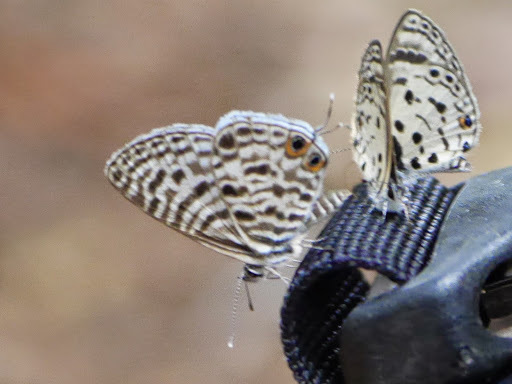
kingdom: Animalia
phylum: Arthropoda
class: Insecta
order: Lepidoptera
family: Lycaenidae
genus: Leptotes
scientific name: Leptotes
